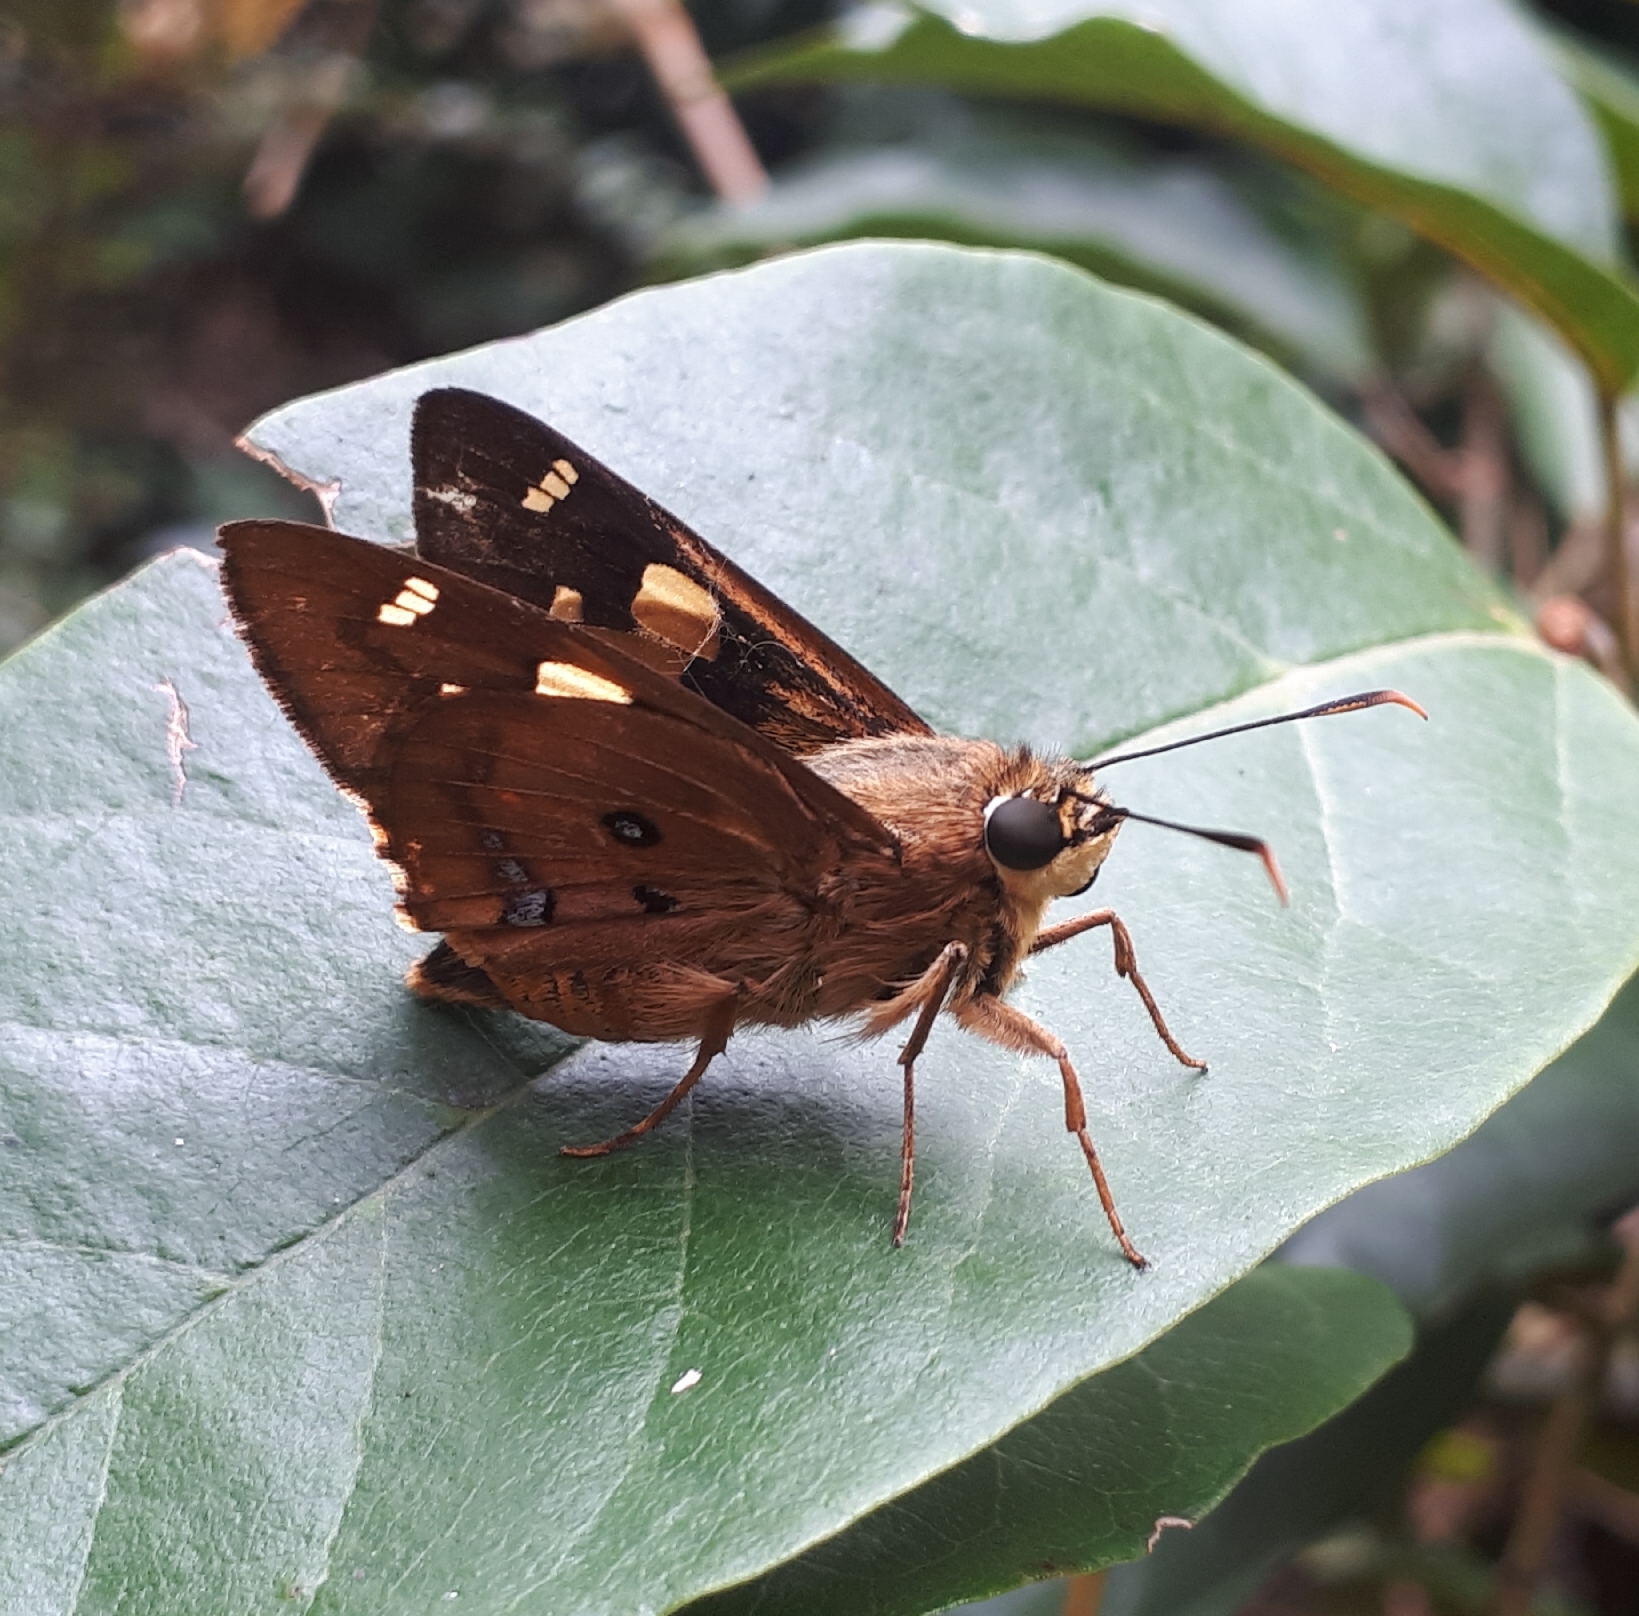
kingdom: Animalia
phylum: Arthropoda
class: Insecta
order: Lepidoptera
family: Hesperiidae
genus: Trapezites
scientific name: Trapezites symmomus
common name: Splendid ochre
